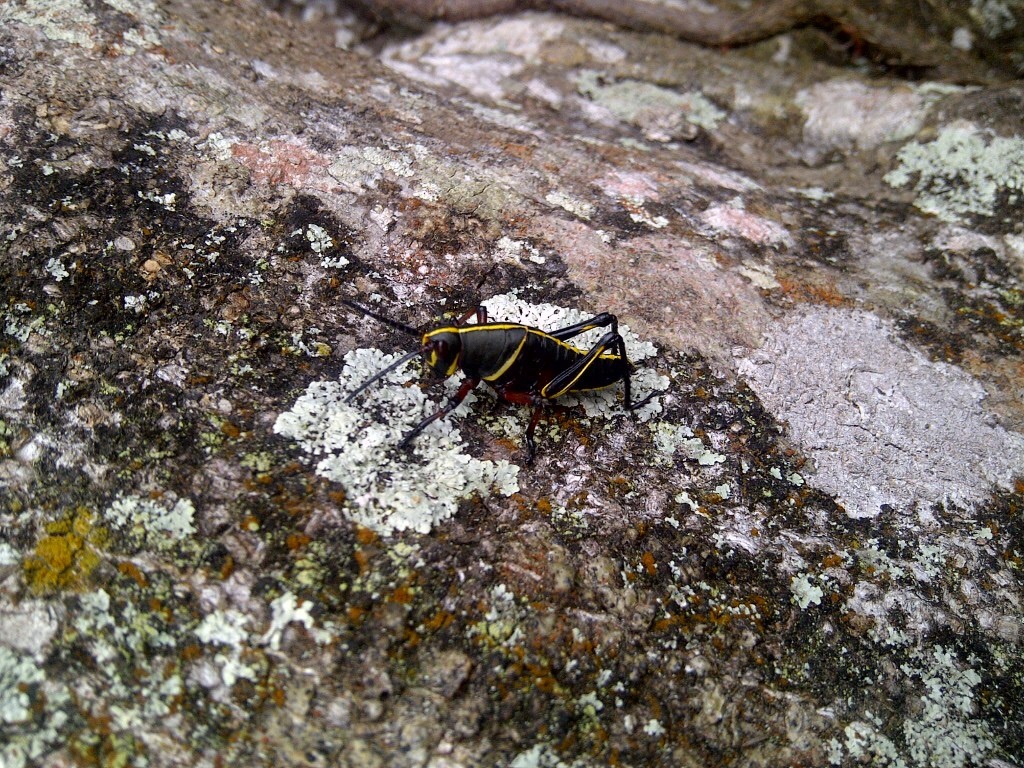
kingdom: Animalia
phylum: Arthropoda
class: Insecta
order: Orthoptera
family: Romaleidae
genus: Romalea
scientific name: Romalea microptera
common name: Eastern lubber grasshopper
